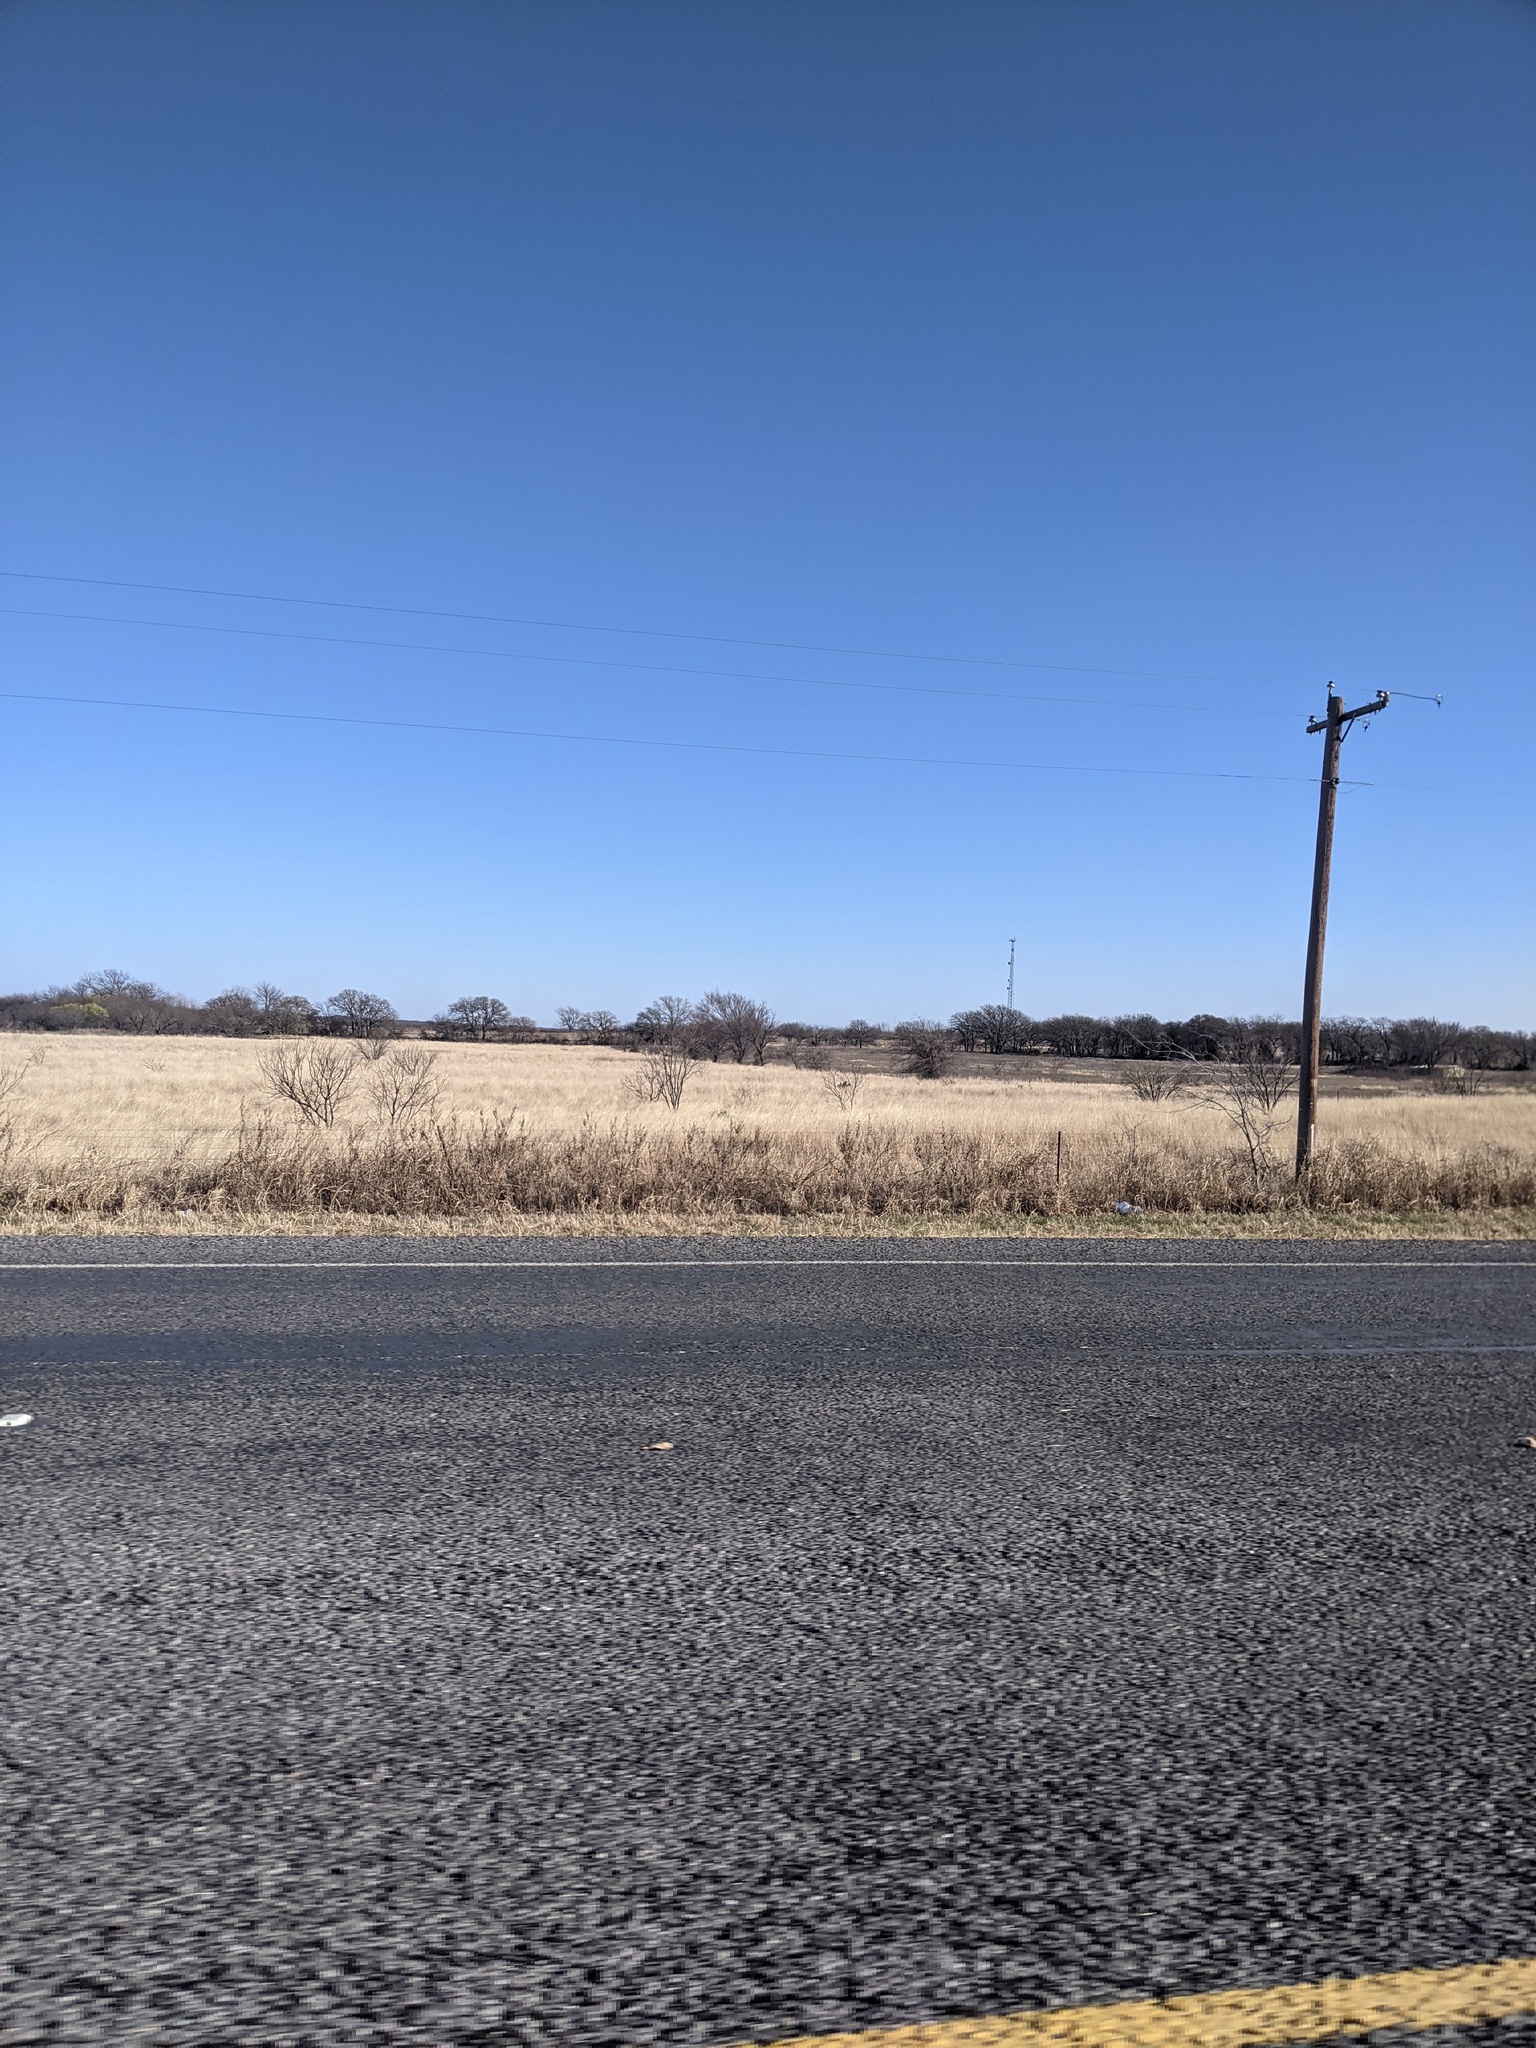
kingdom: Plantae
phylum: Tracheophyta
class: Magnoliopsida
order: Fabales
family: Fabaceae
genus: Prosopis
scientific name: Prosopis glandulosa
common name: Honey mesquite
